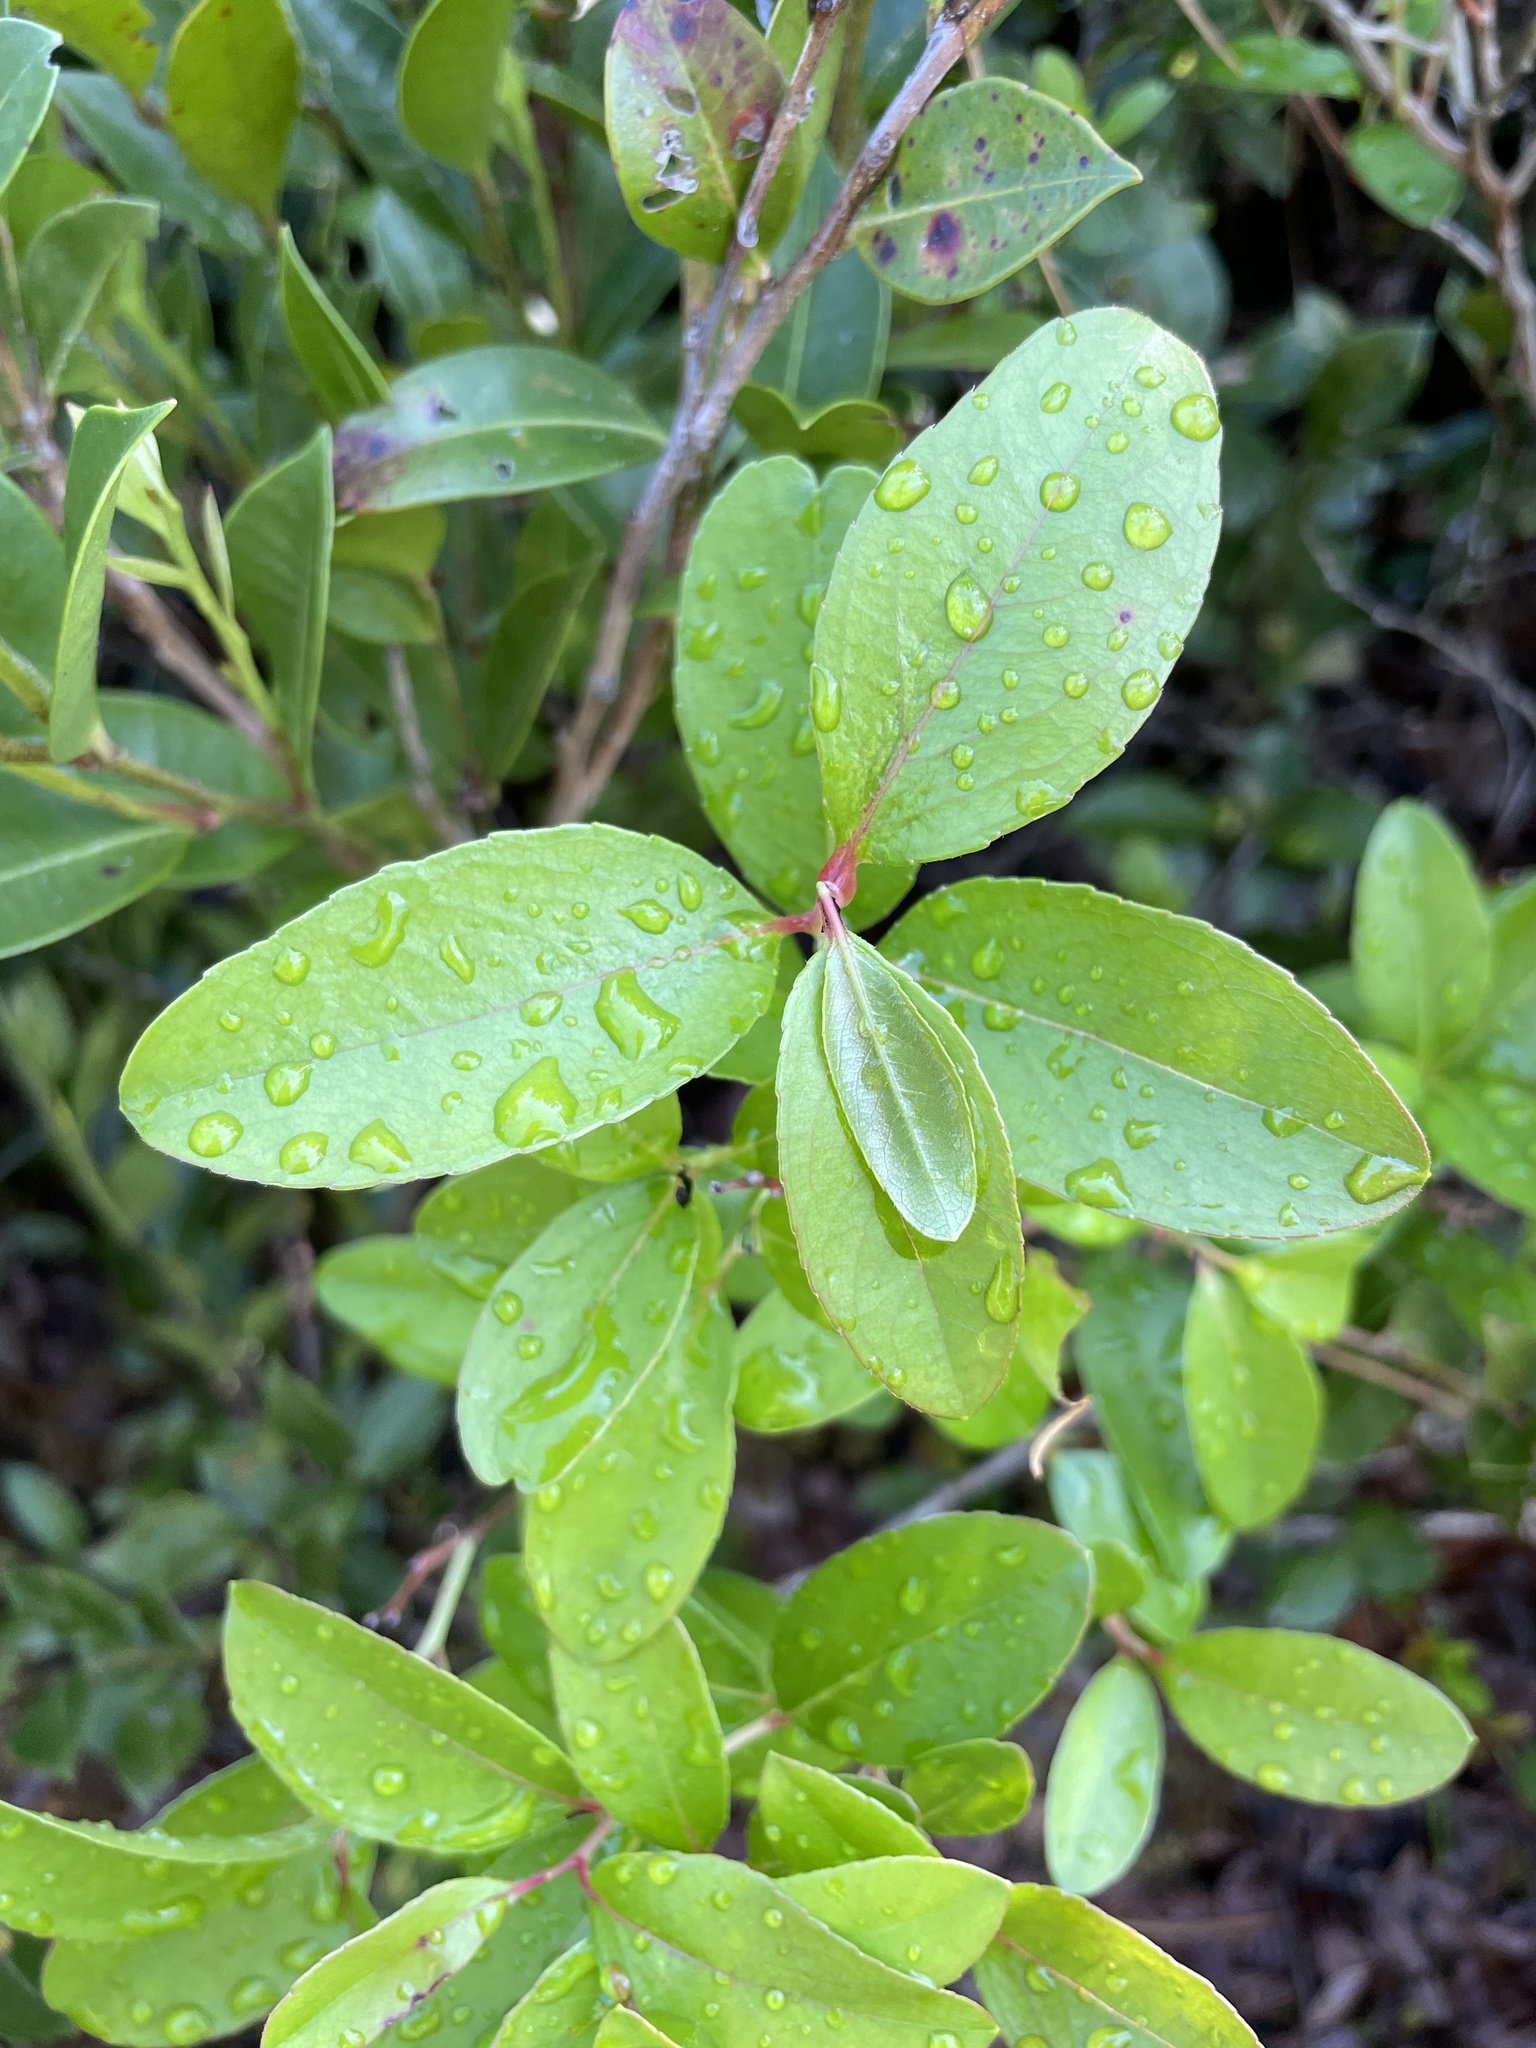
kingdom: Plantae
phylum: Tracheophyta
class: Magnoliopsida
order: Ericales
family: Ericaceae
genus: Zenobia
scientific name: Zenobia pulverulenta
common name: Zenobia
